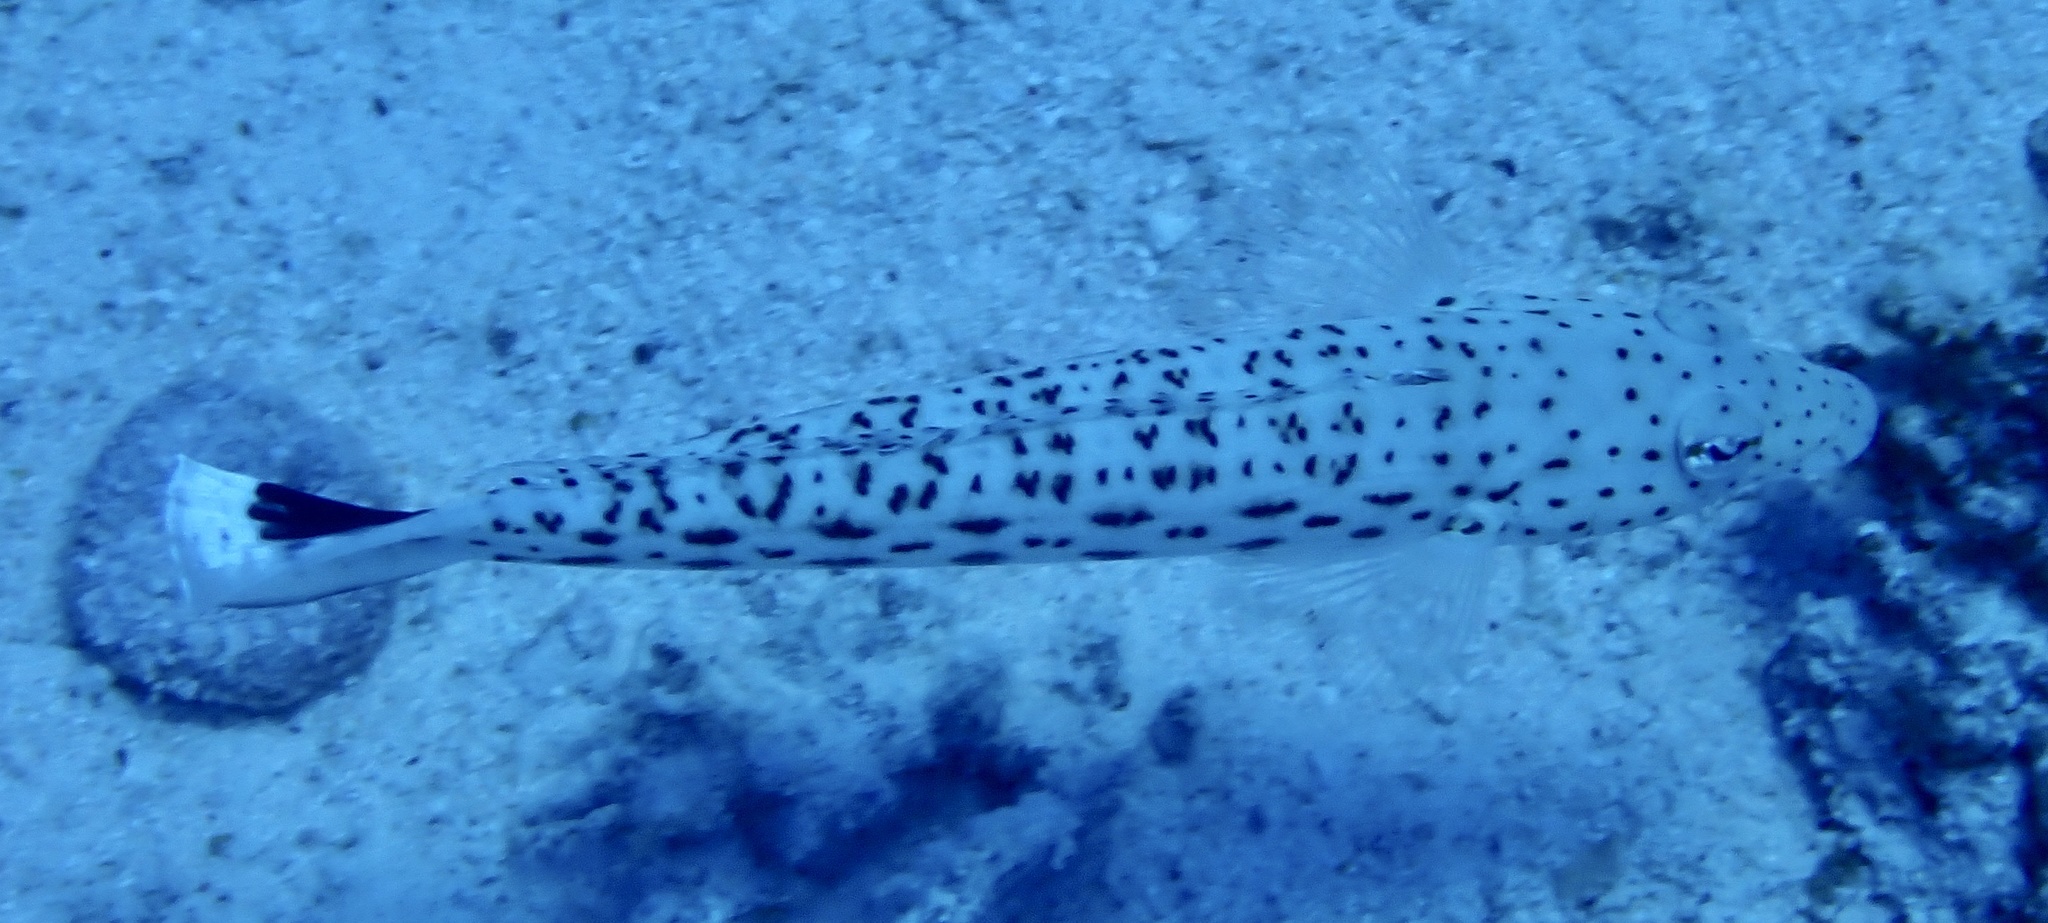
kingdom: Animalia
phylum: Chordata
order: Perciformes
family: Pinguipedidae
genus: Parapercis
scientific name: Parapercis hexophtalma
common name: Speckled sandperch
